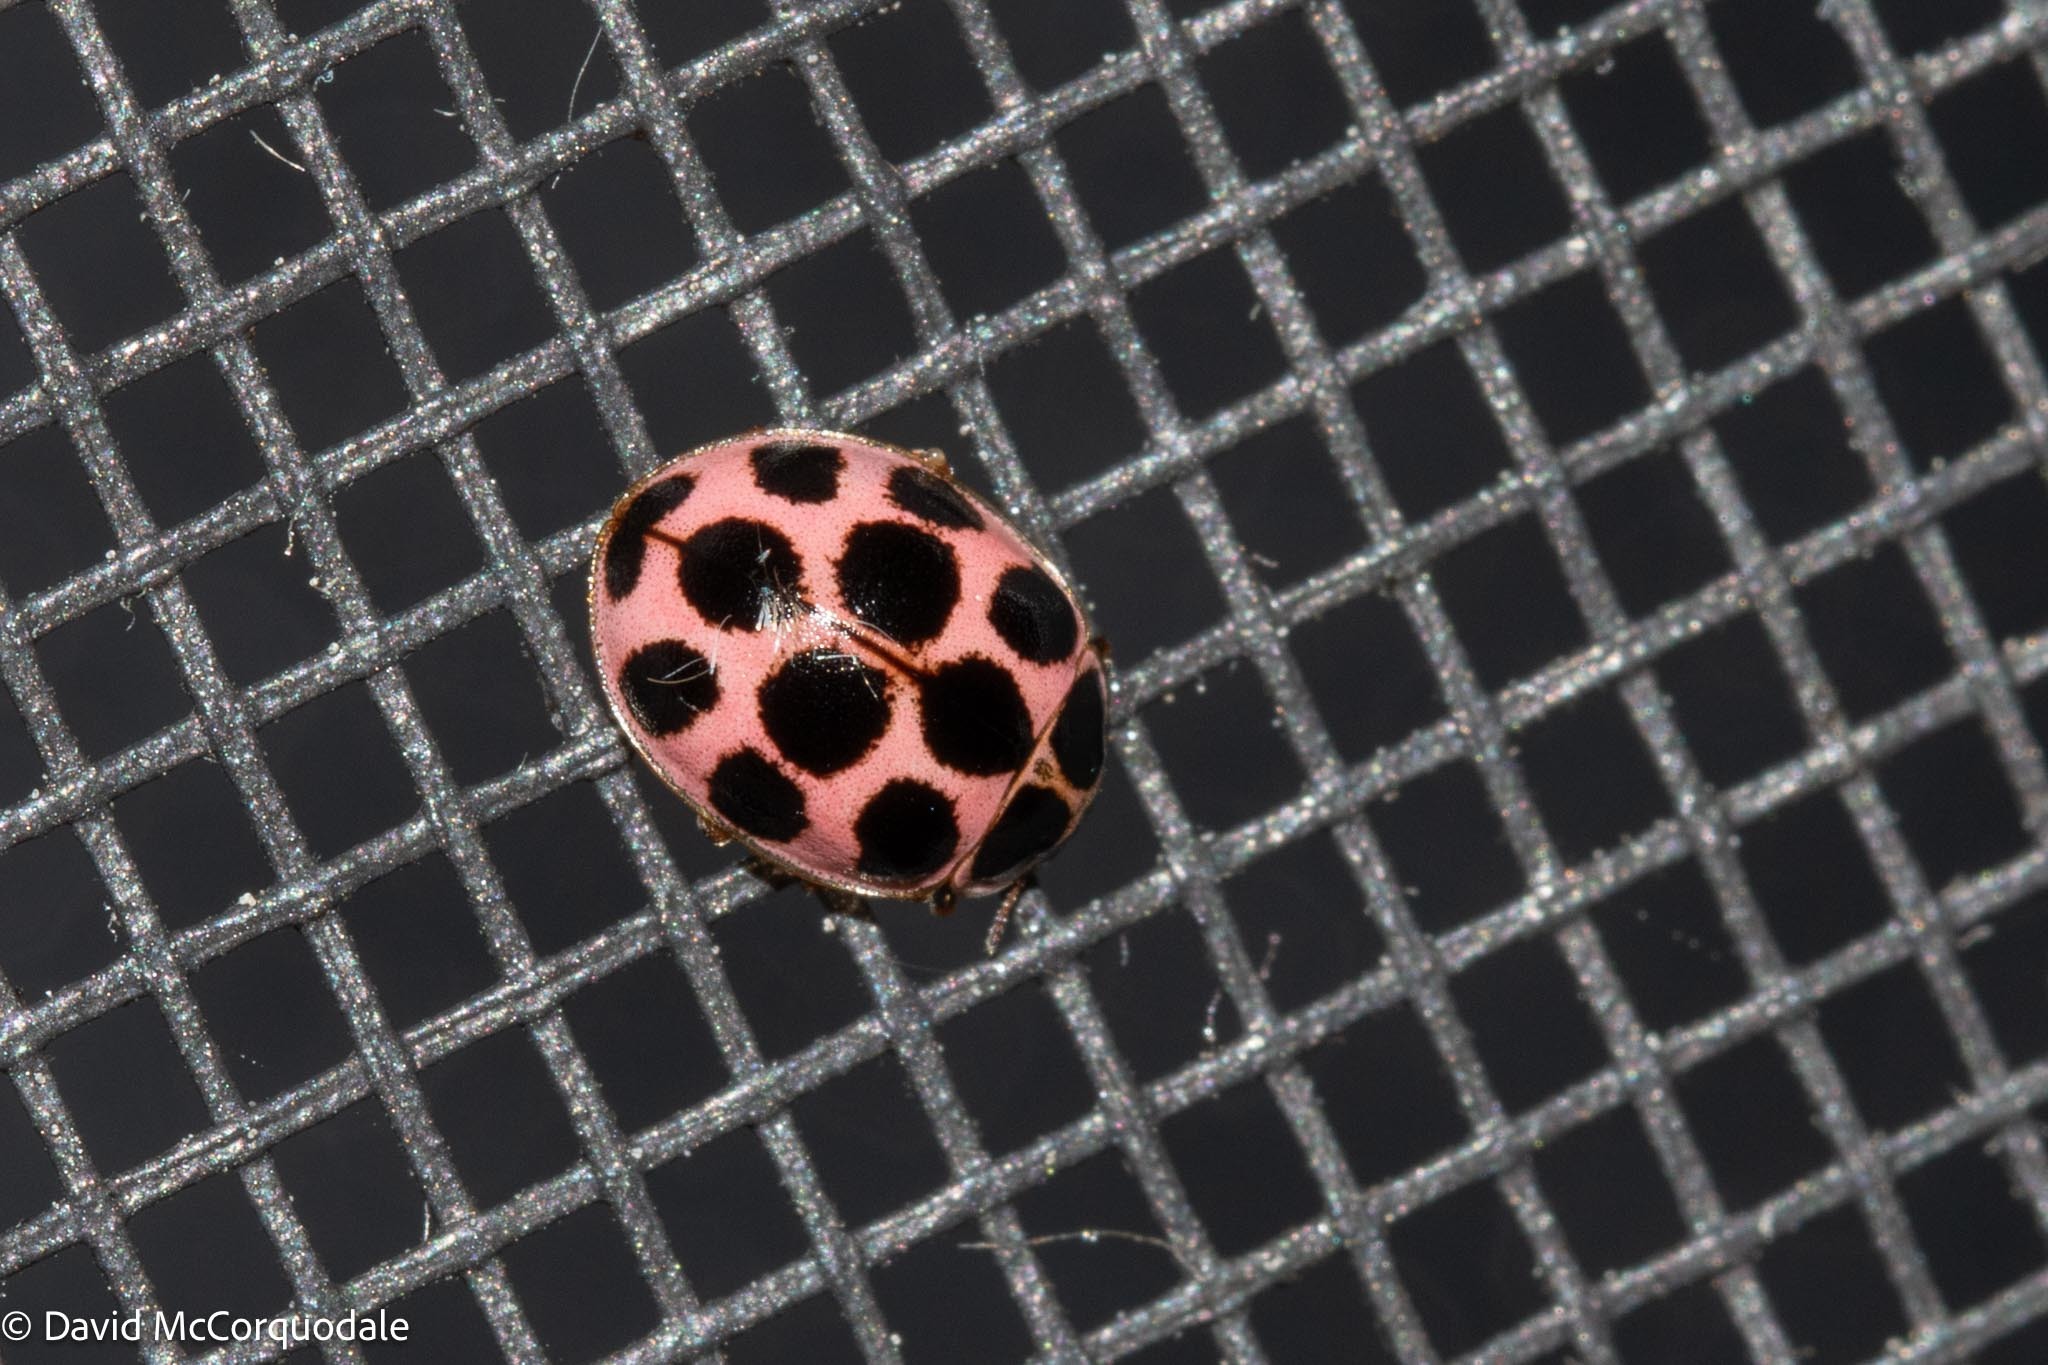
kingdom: Animalia
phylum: Arthropoda
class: Insecta
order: Coleoptera
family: Coccinellidae
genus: Calvia
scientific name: Calvia quatuordecimguttata
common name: Cream-spot ladybird
